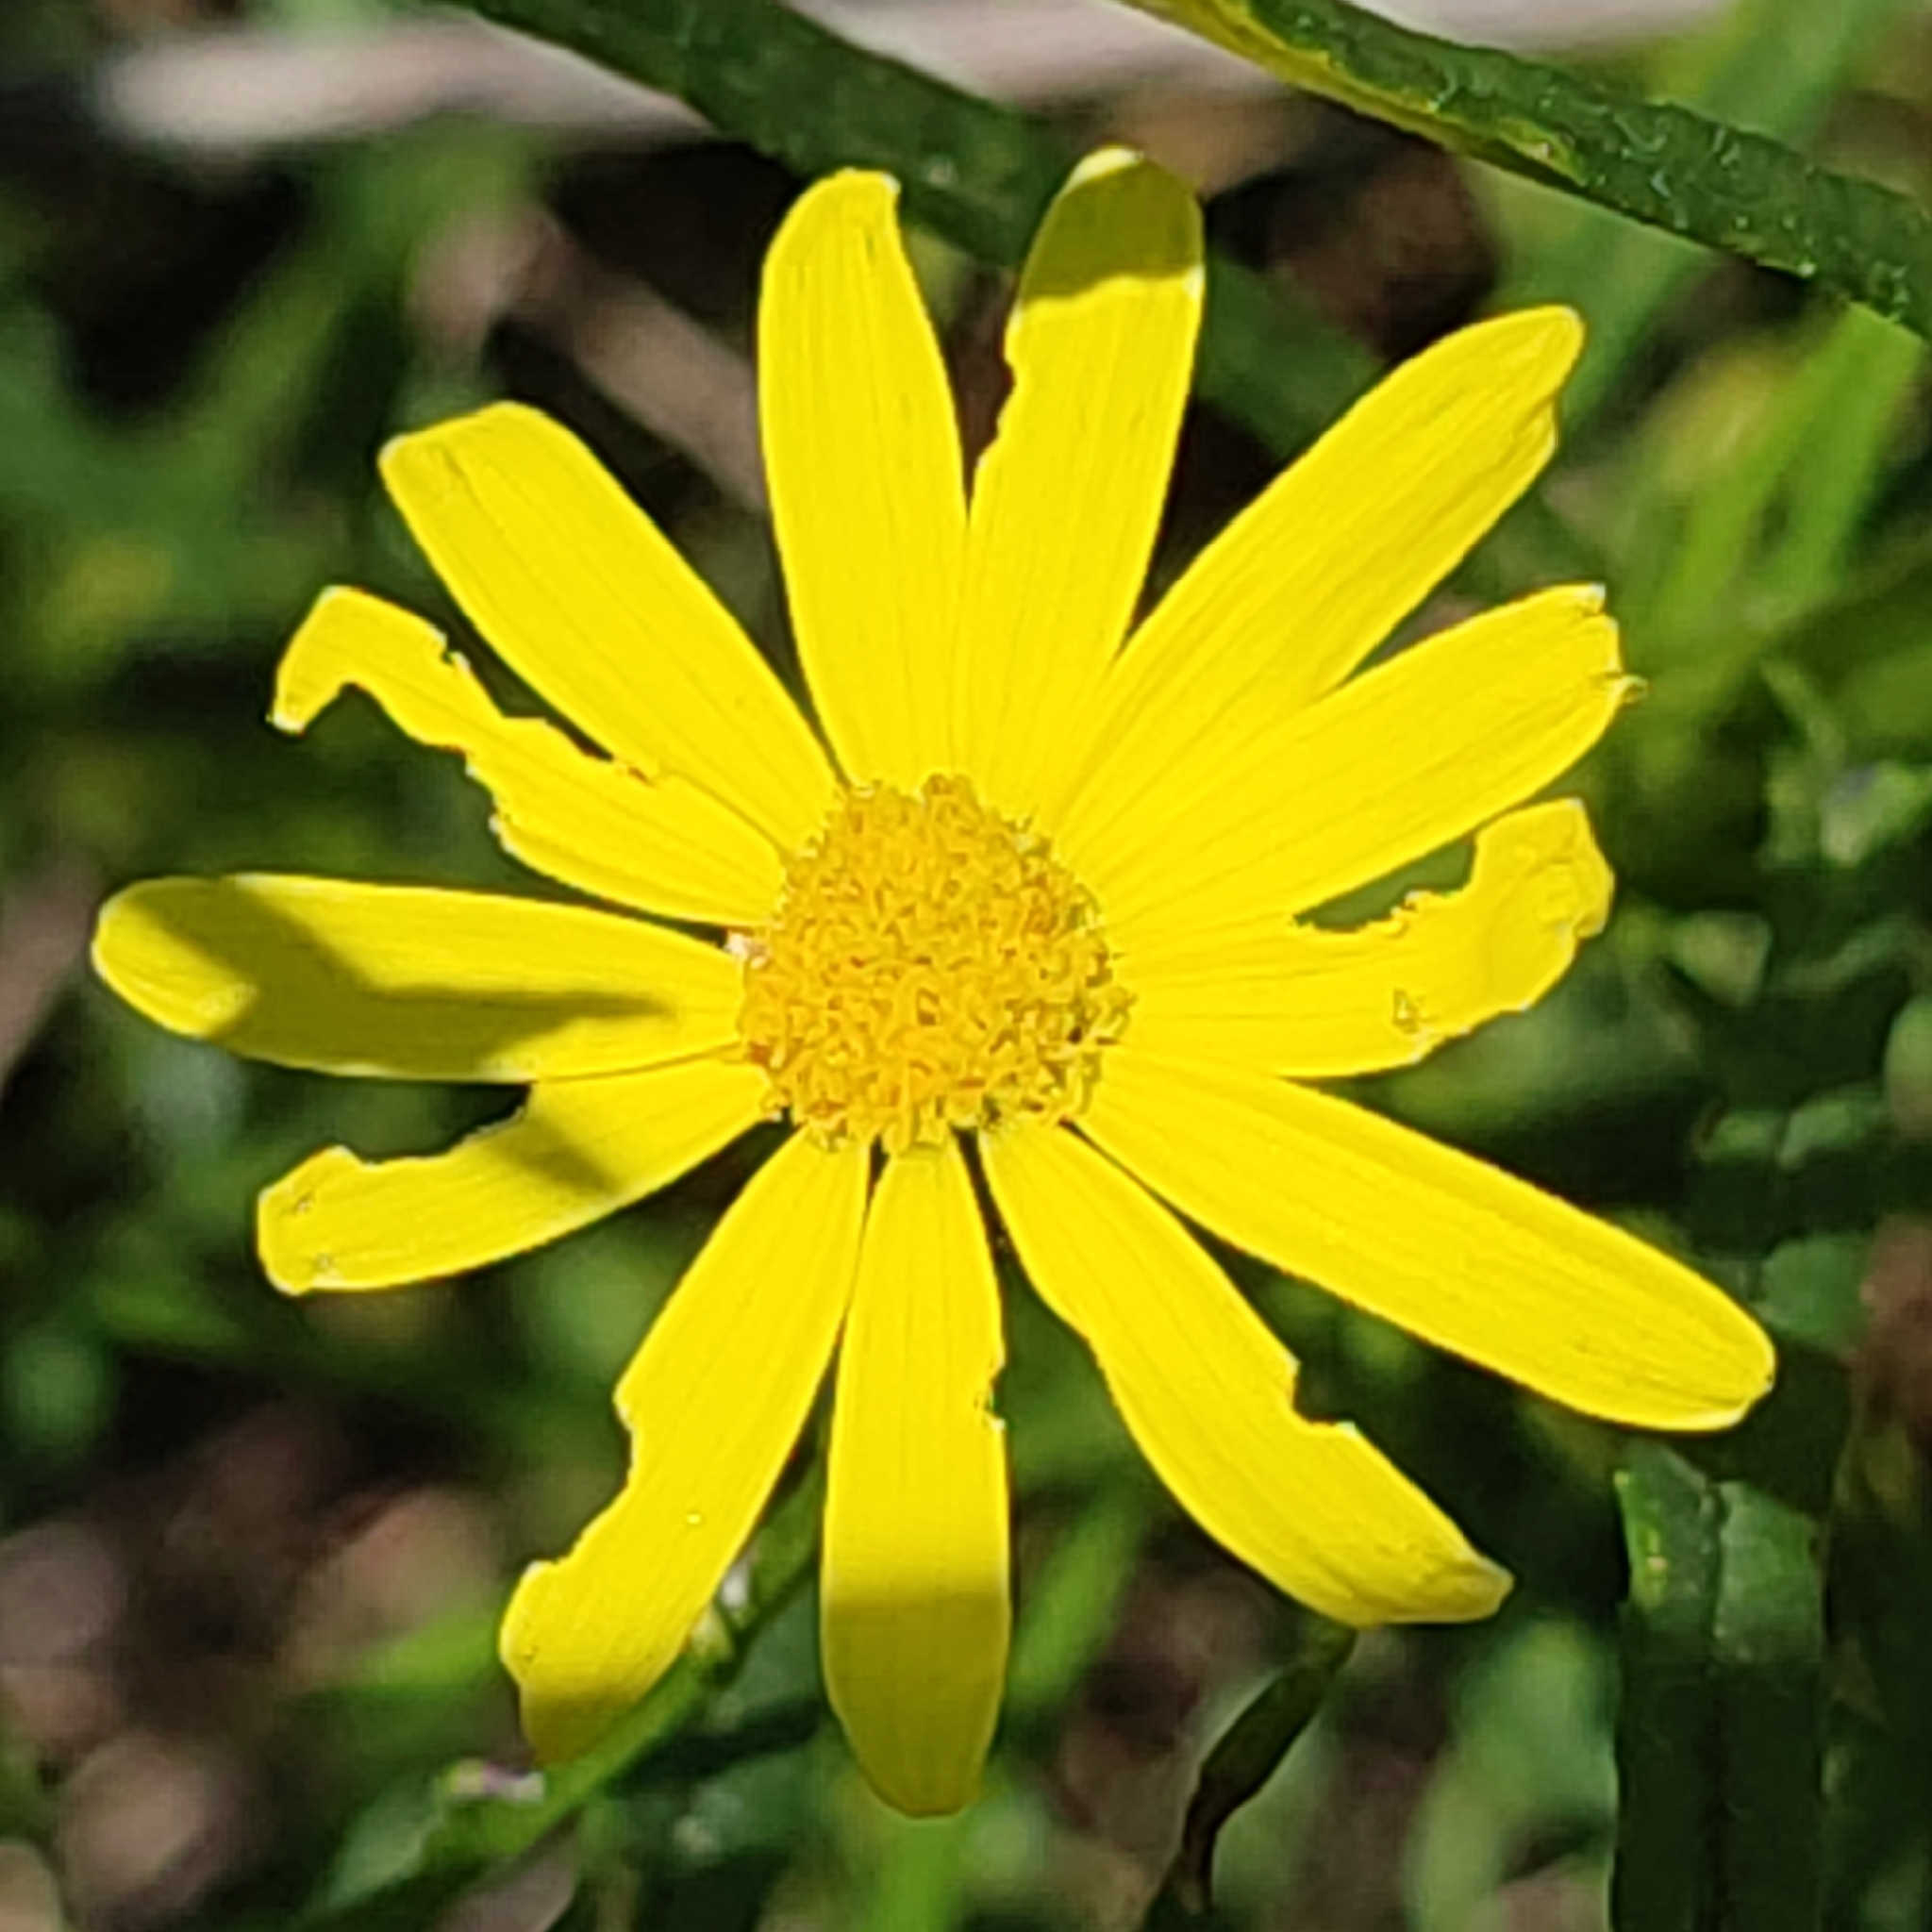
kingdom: Plantae
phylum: Tracheophyta
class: Magnoliopsida
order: Asterales
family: Asteraceae
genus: Senecio
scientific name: Senecio inaequidens
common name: Narrow-leaved ragwort
